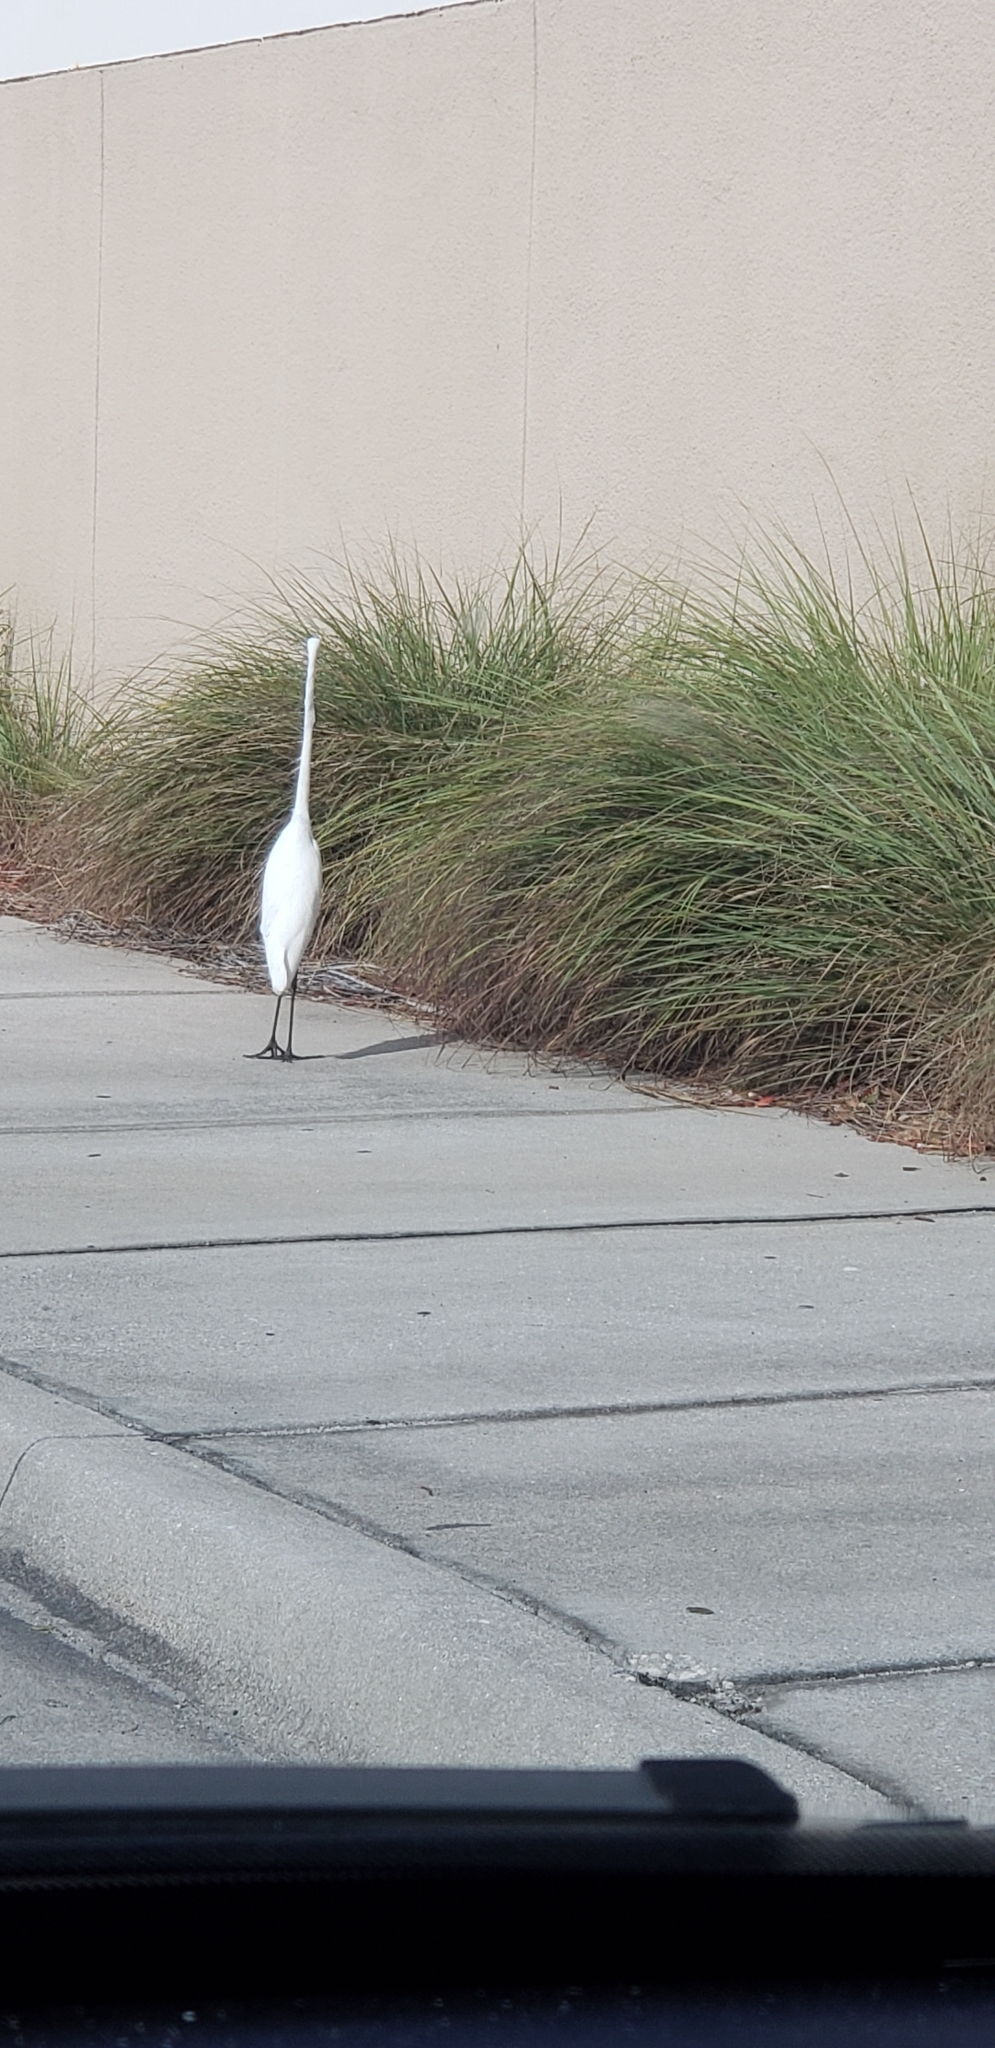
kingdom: Animalia
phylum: Chordata
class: Aves
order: Pelecaniformes
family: Ardeidae
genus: Ardea
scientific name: Ardea alba
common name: Great egret
